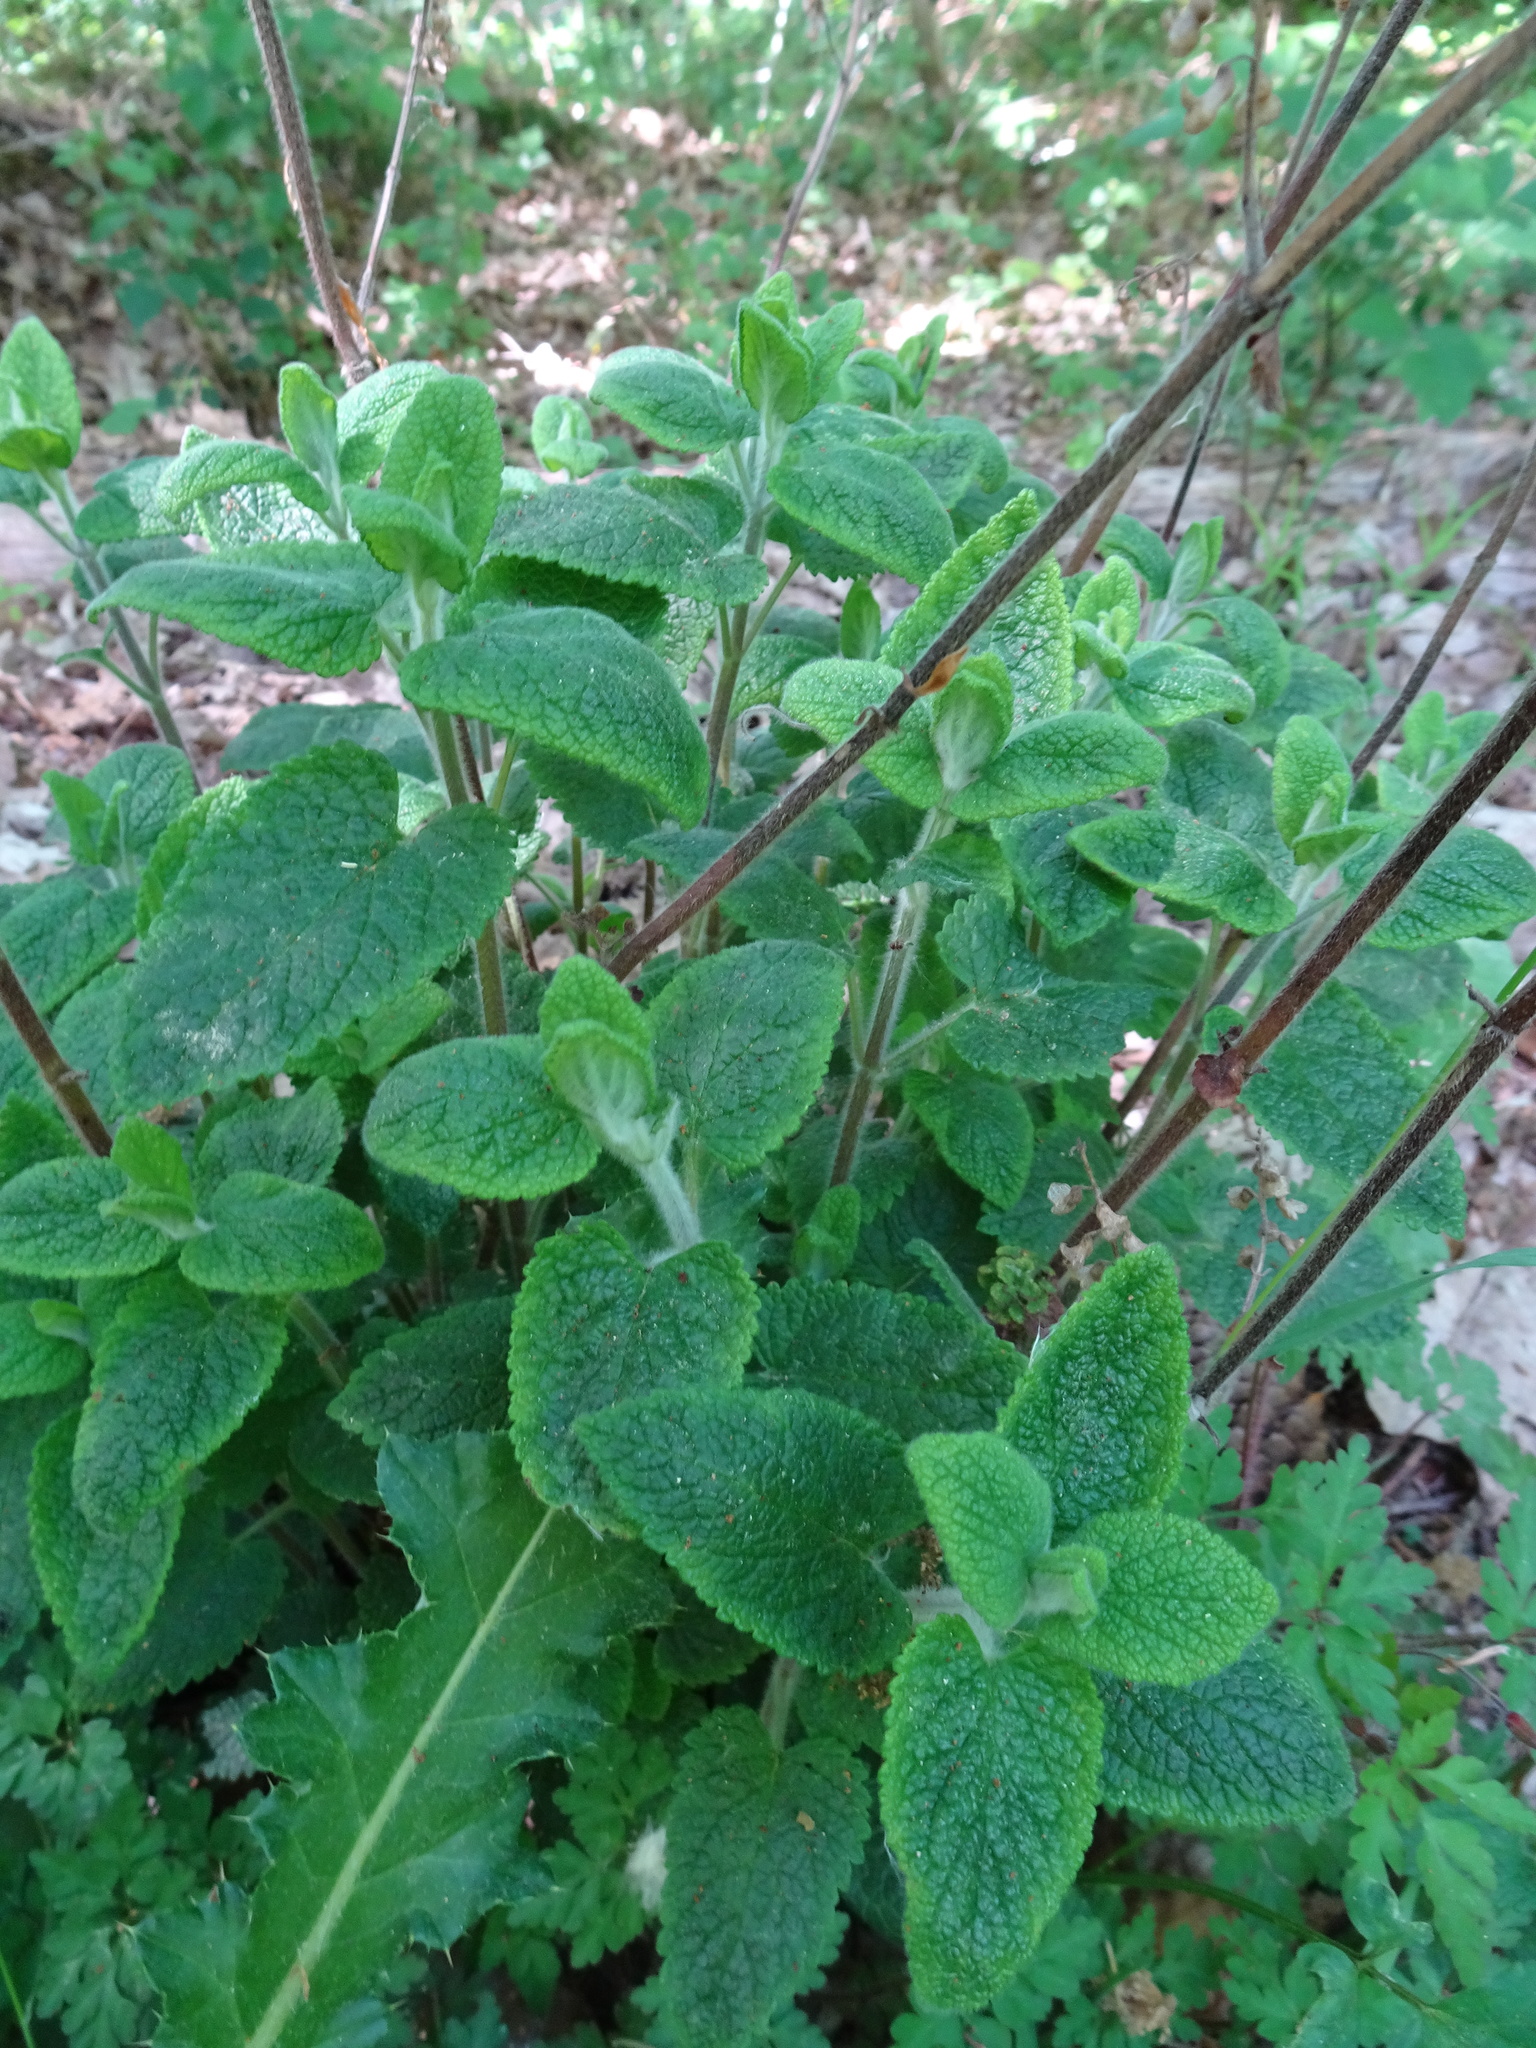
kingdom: Plantae
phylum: Tracheophyta
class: Magnoliopsida
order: Lamiales
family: Lamiaceae
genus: Teucrium
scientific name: Teucrium scorodonia
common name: Woodland germander
